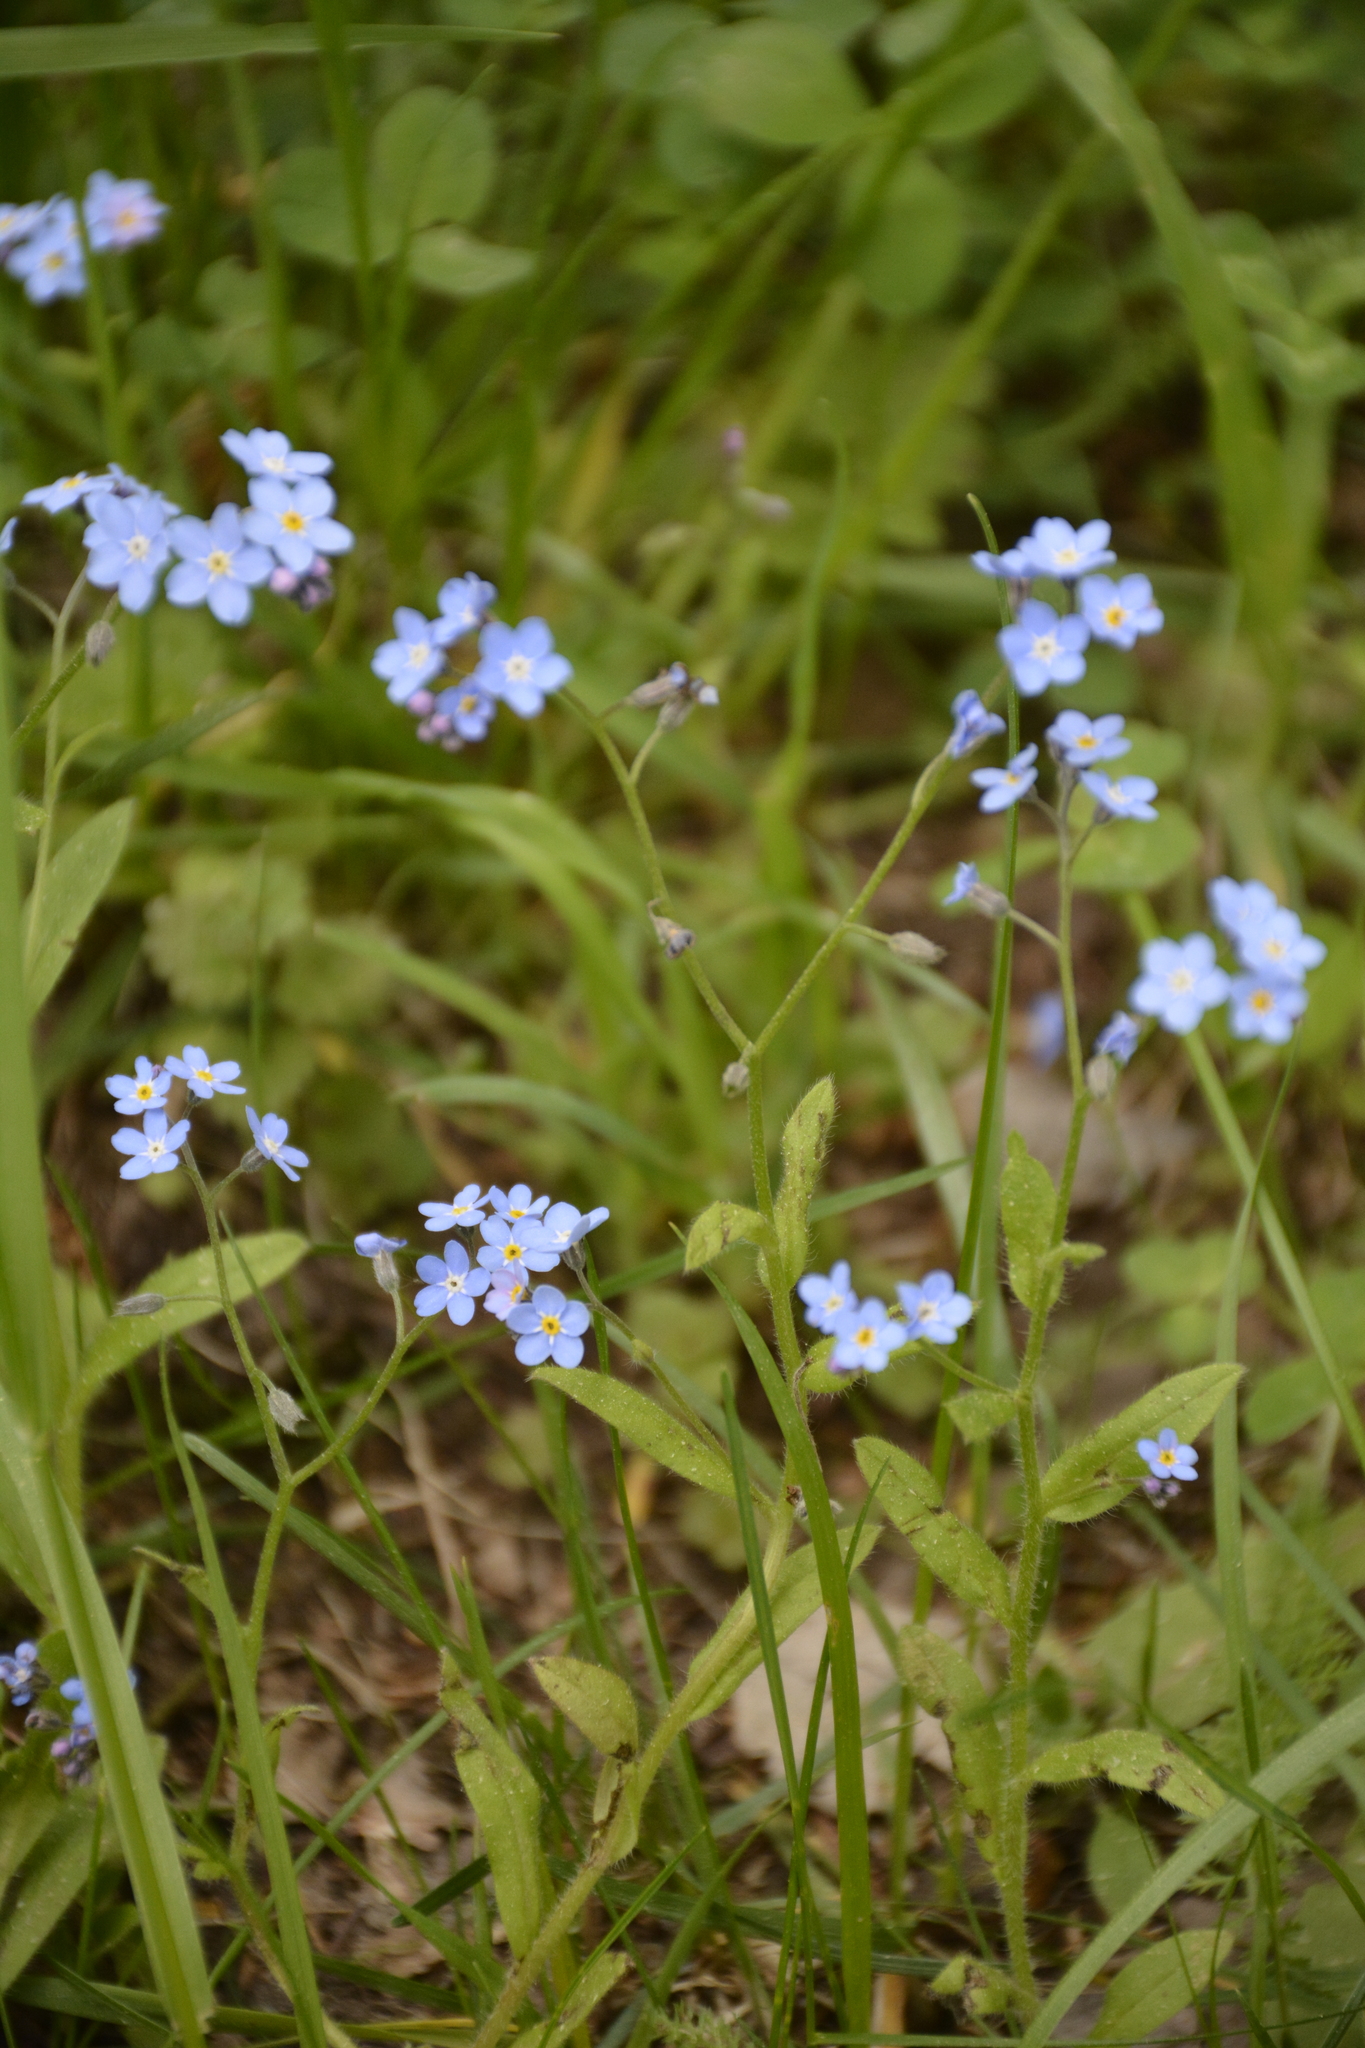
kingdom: Plantae
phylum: Tracheophyta
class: Magnoliopsida
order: Boraginales
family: Boraginaceae
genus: Myosotis
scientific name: Myosotis sylvatica
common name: Wood forget-me-not
